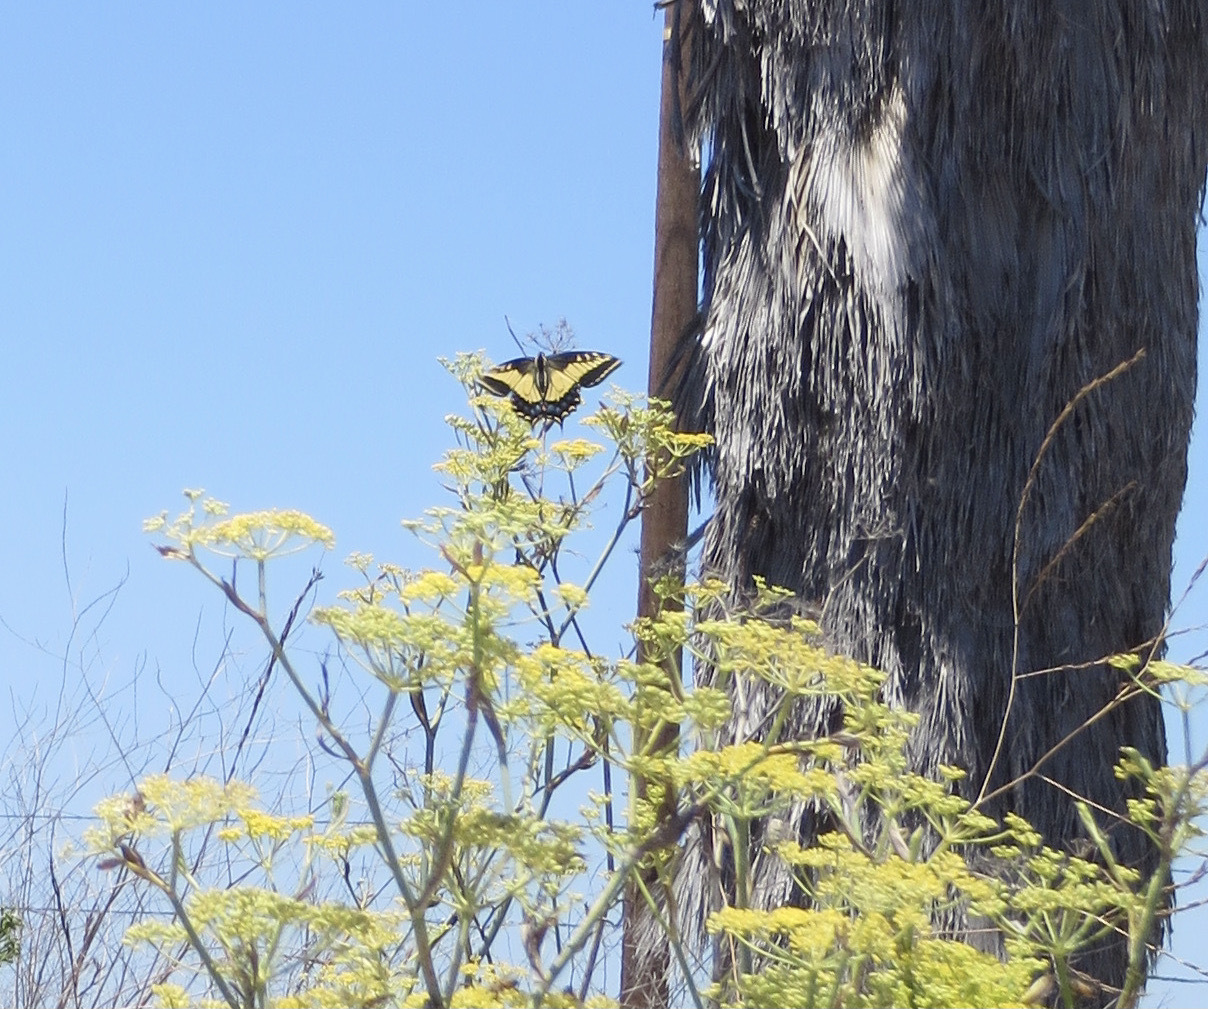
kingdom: Animalia
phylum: Arthropoda
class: Insecta
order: Lepidoptera
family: Papilionidae
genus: Papilio
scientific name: Papilio zelicaon
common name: Anise swallowtail
